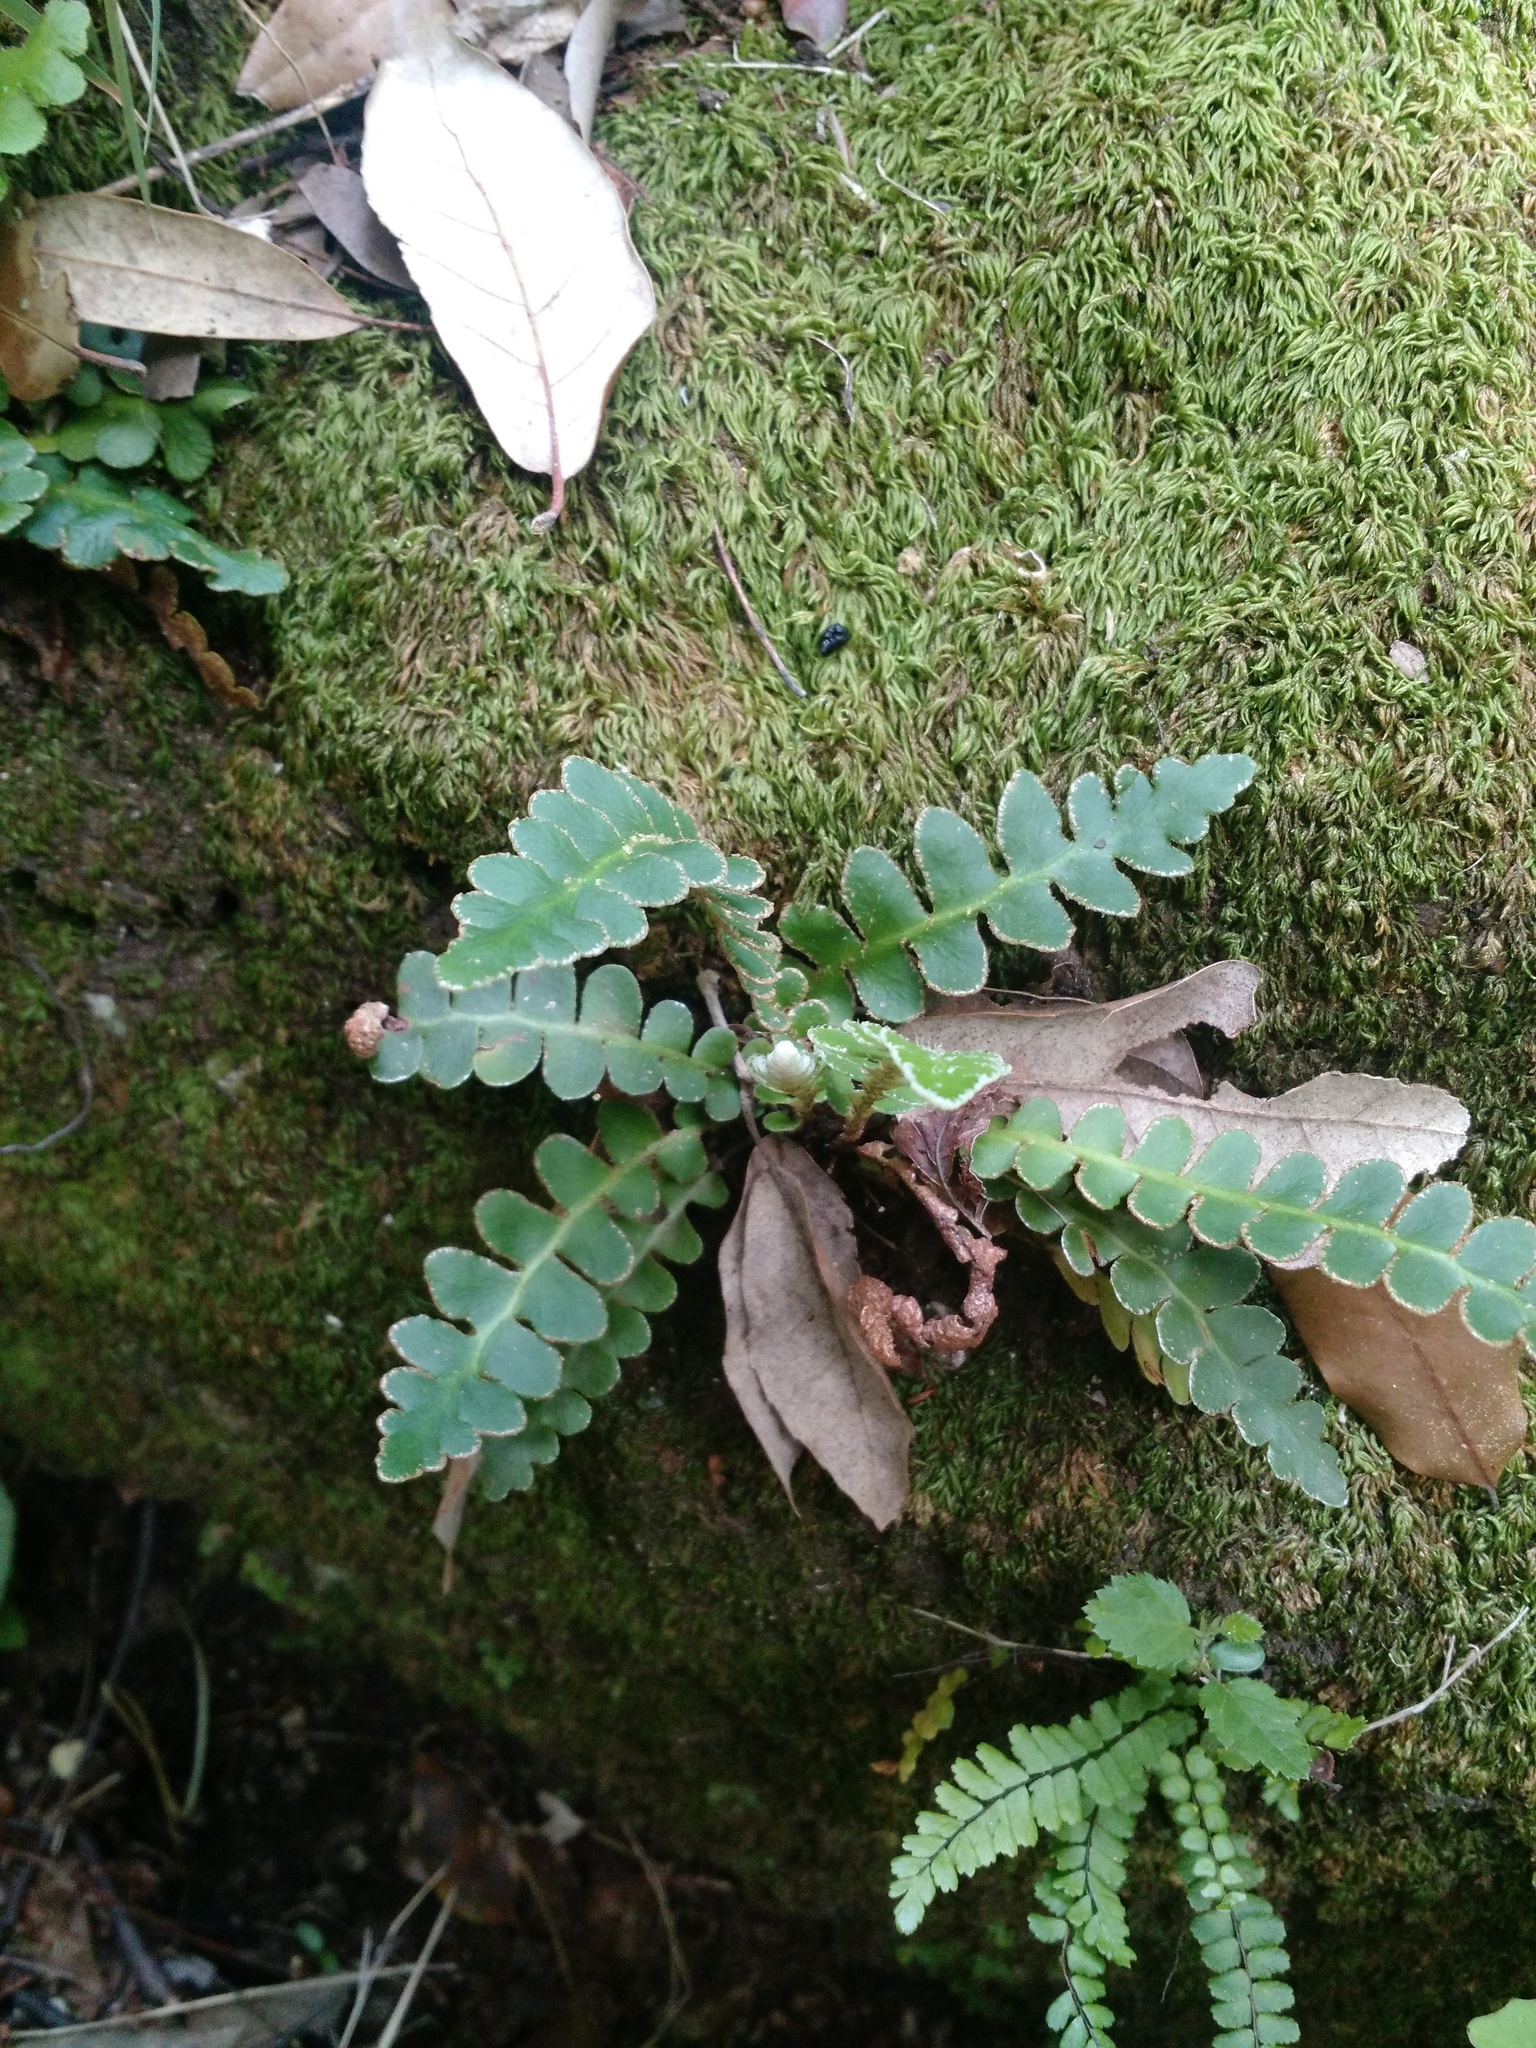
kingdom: Plantae
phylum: Tracheophyta
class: Polypodiopsida
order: Polypodiales
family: Aspleniaceae
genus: Asplenium
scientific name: Asplenium ceterach
